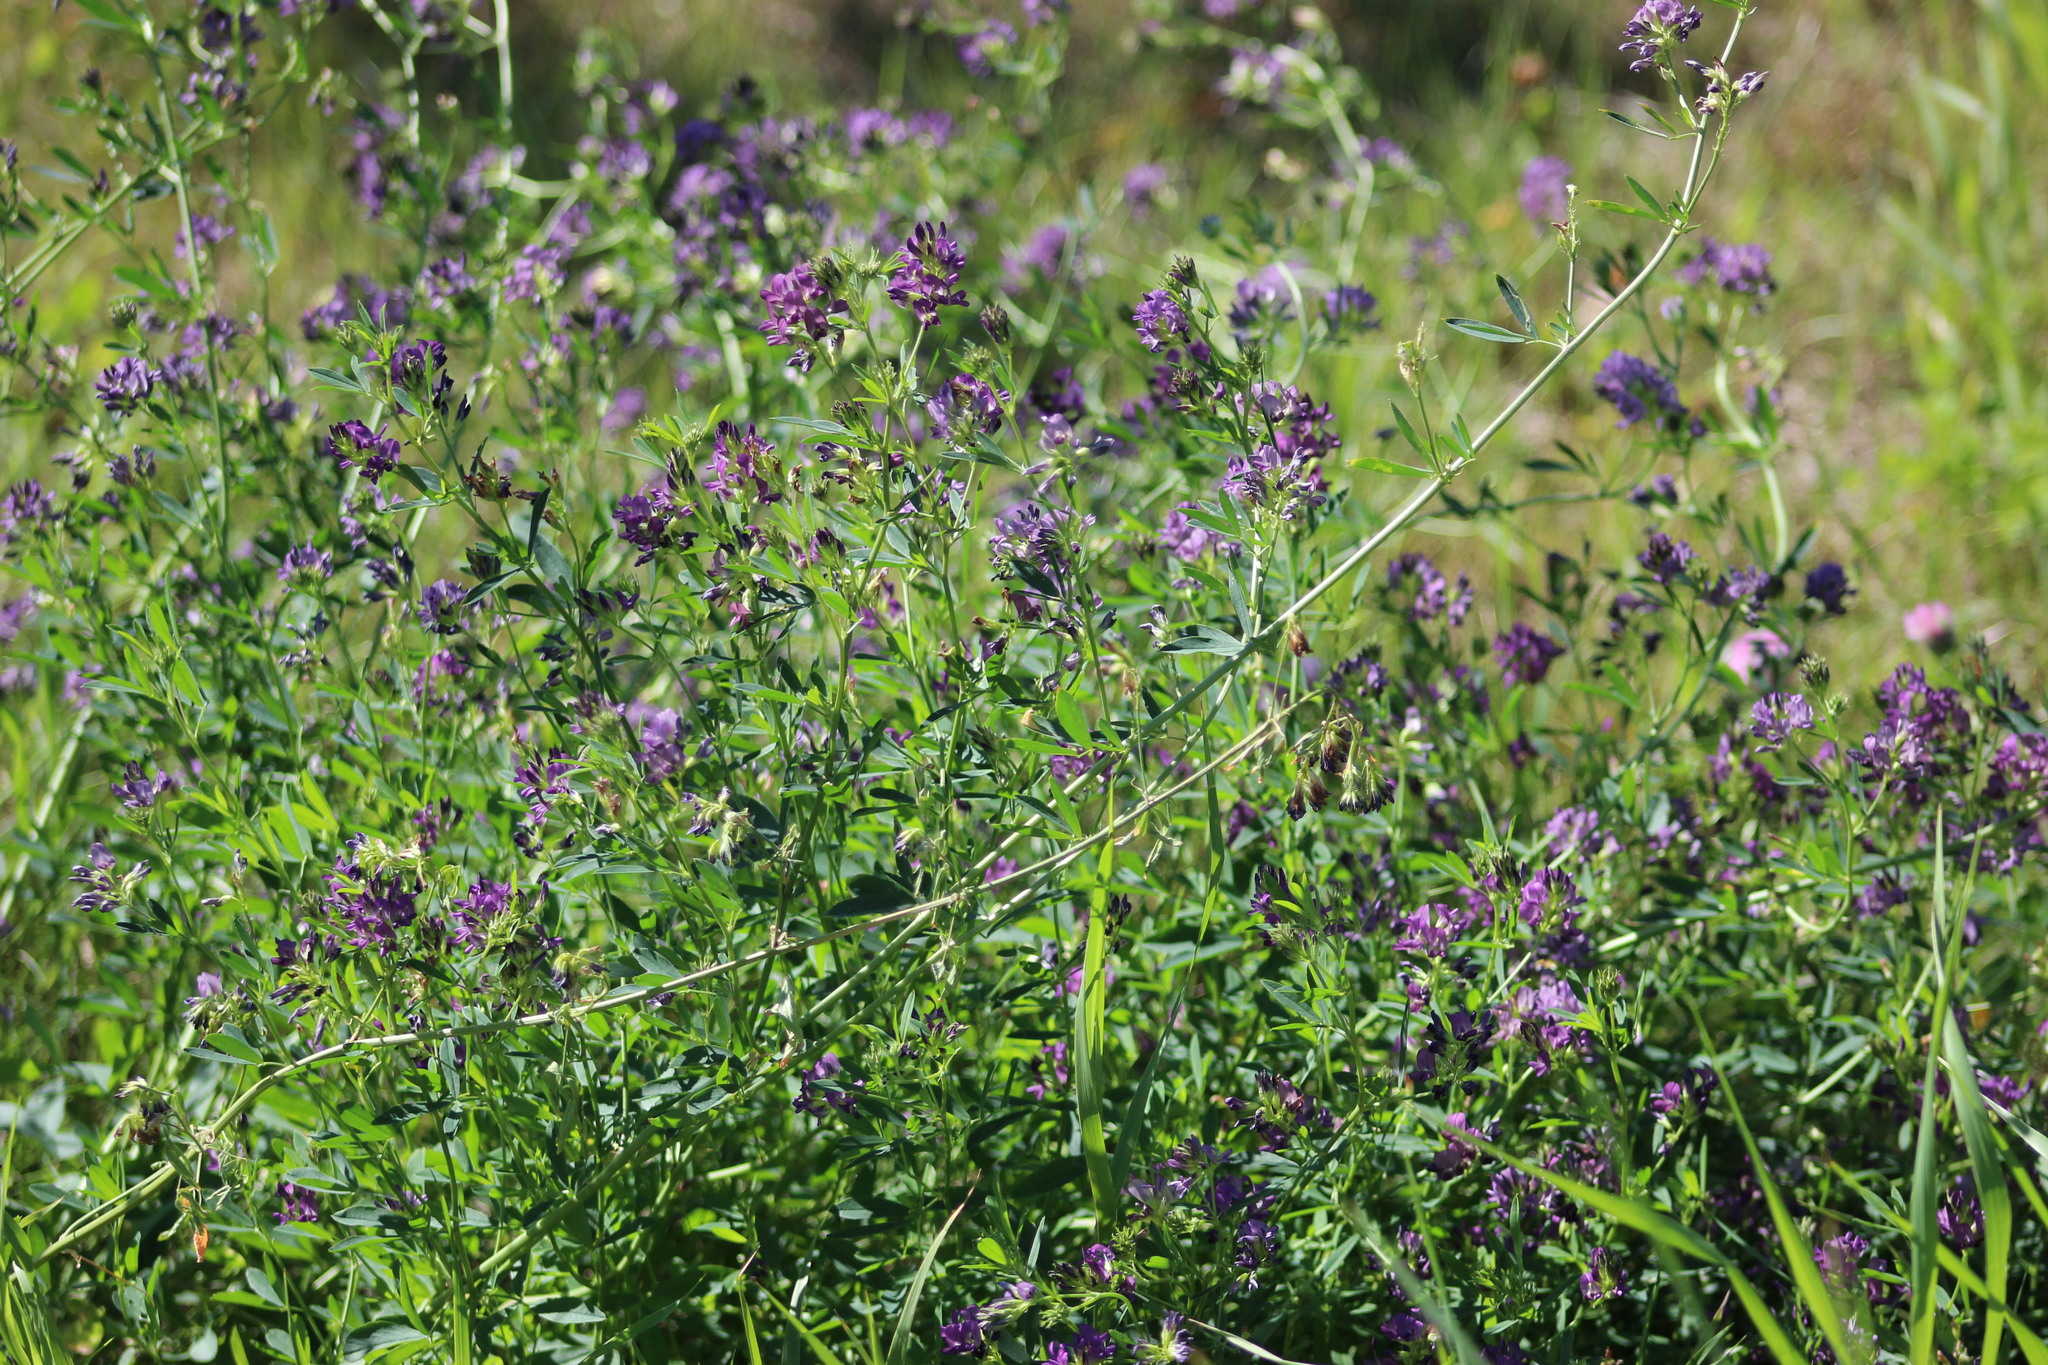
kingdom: Plantae
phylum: Tracheophyta
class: Magnoliopsida
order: Fabales
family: Fabaceae
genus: Medicago
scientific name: Medicago varia
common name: Sand lucerne
